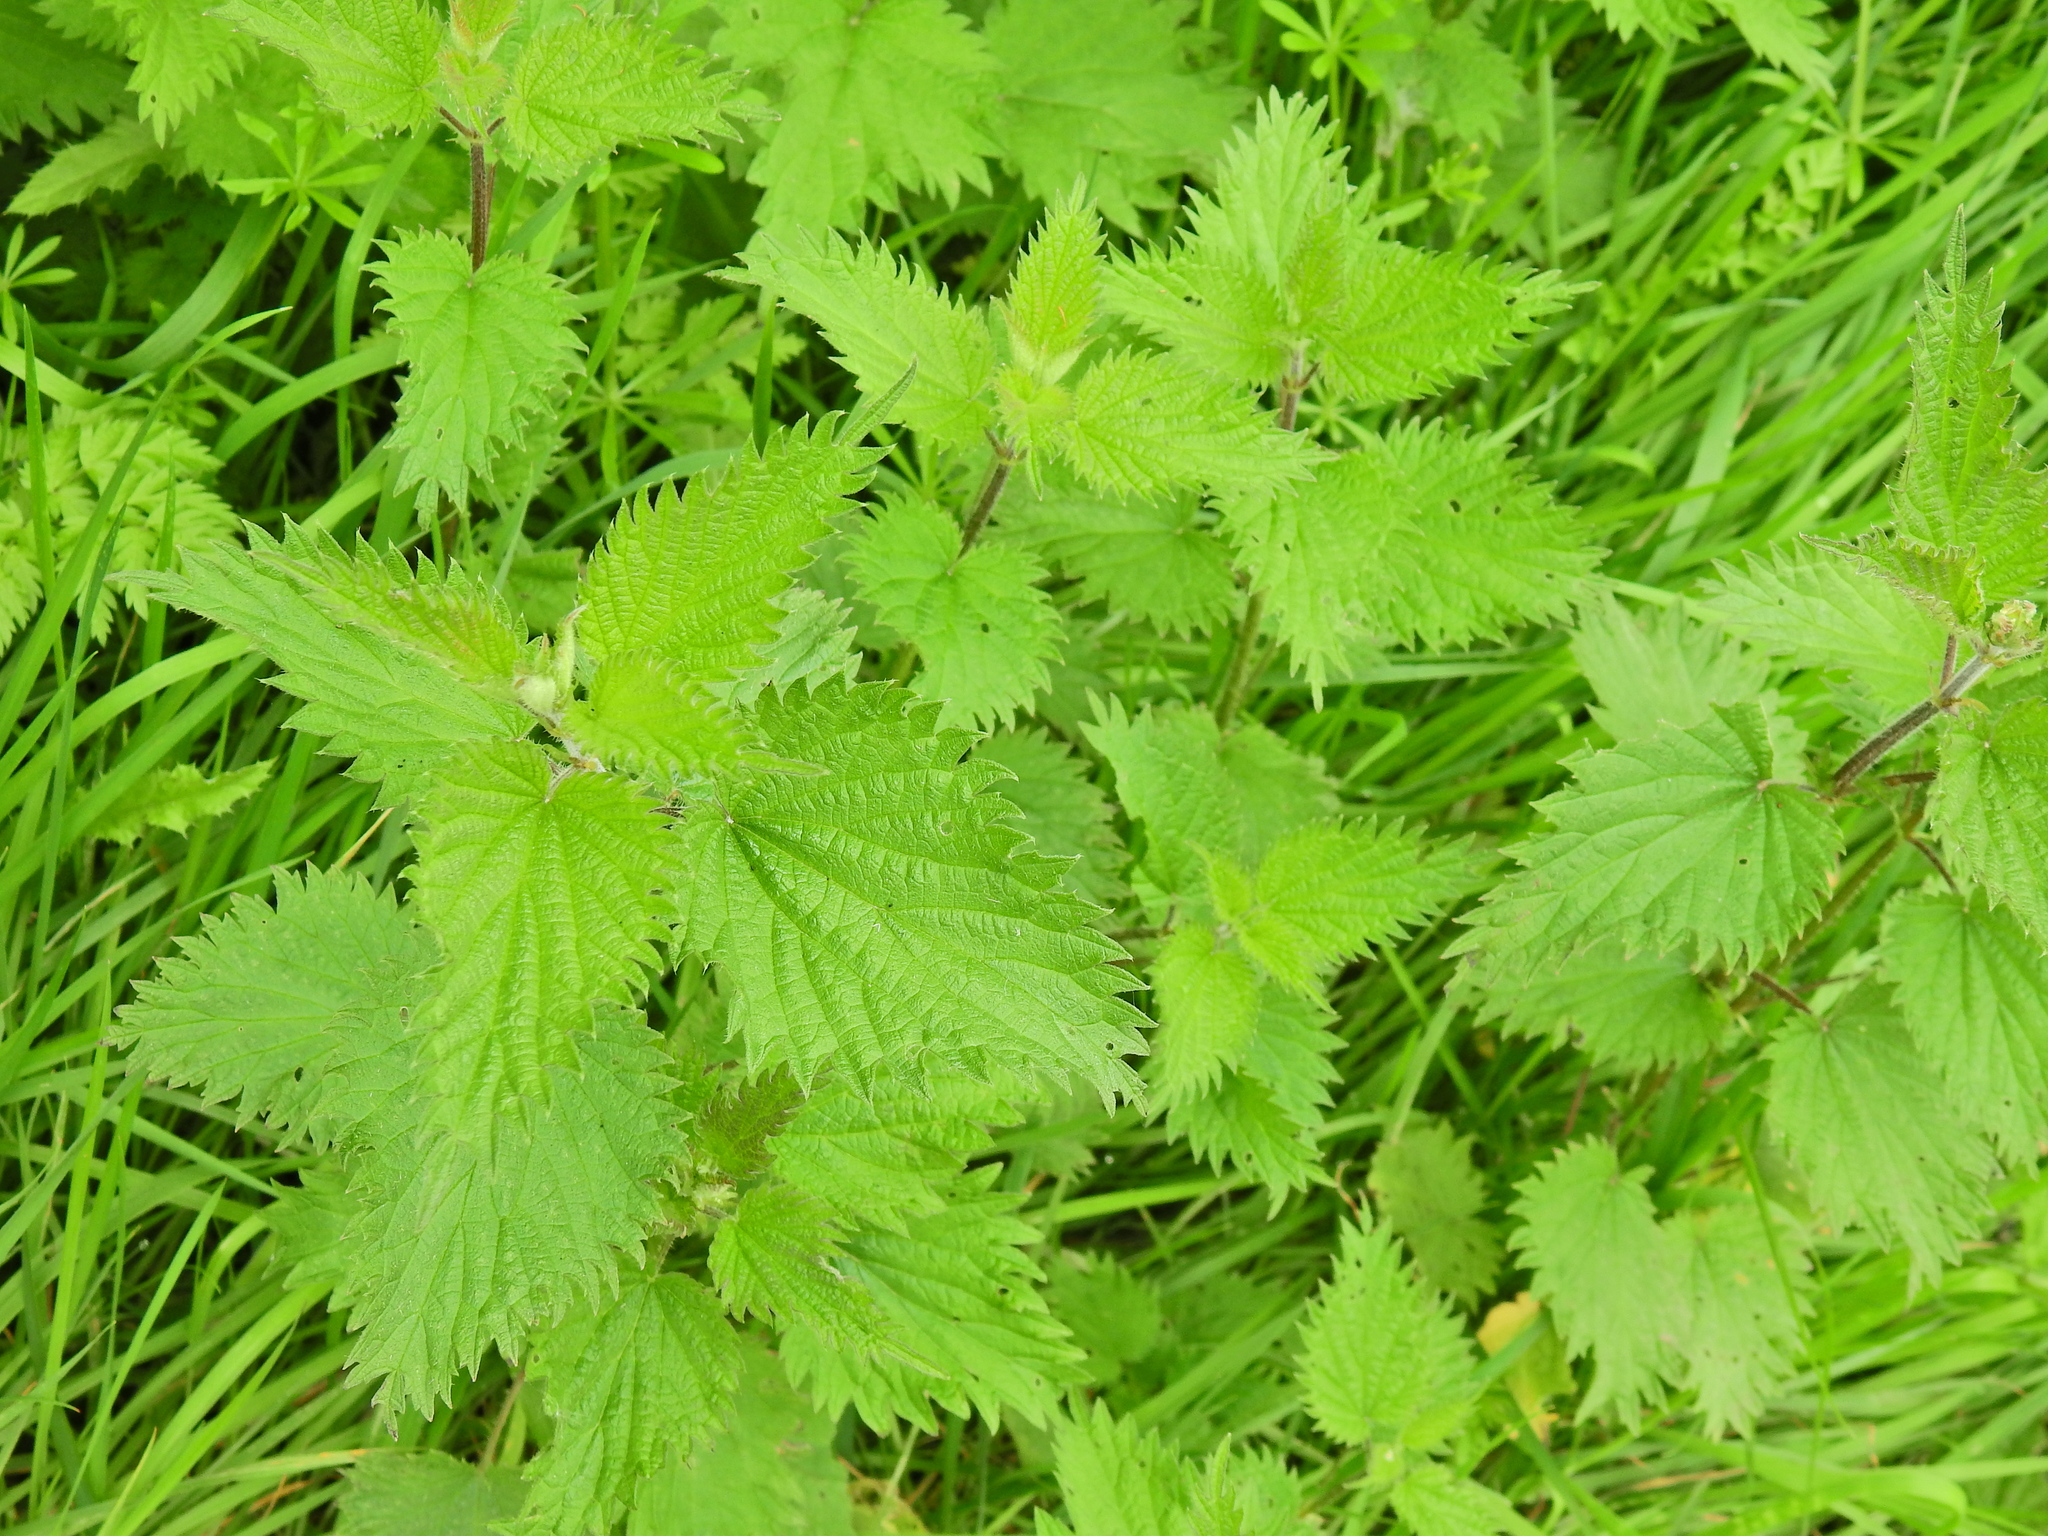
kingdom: Plantae
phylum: Tracheophyta
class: Magnoliopsida
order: Rosales
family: Urticaceae
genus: Urtica
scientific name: Urtica dioica
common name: Common nettle
